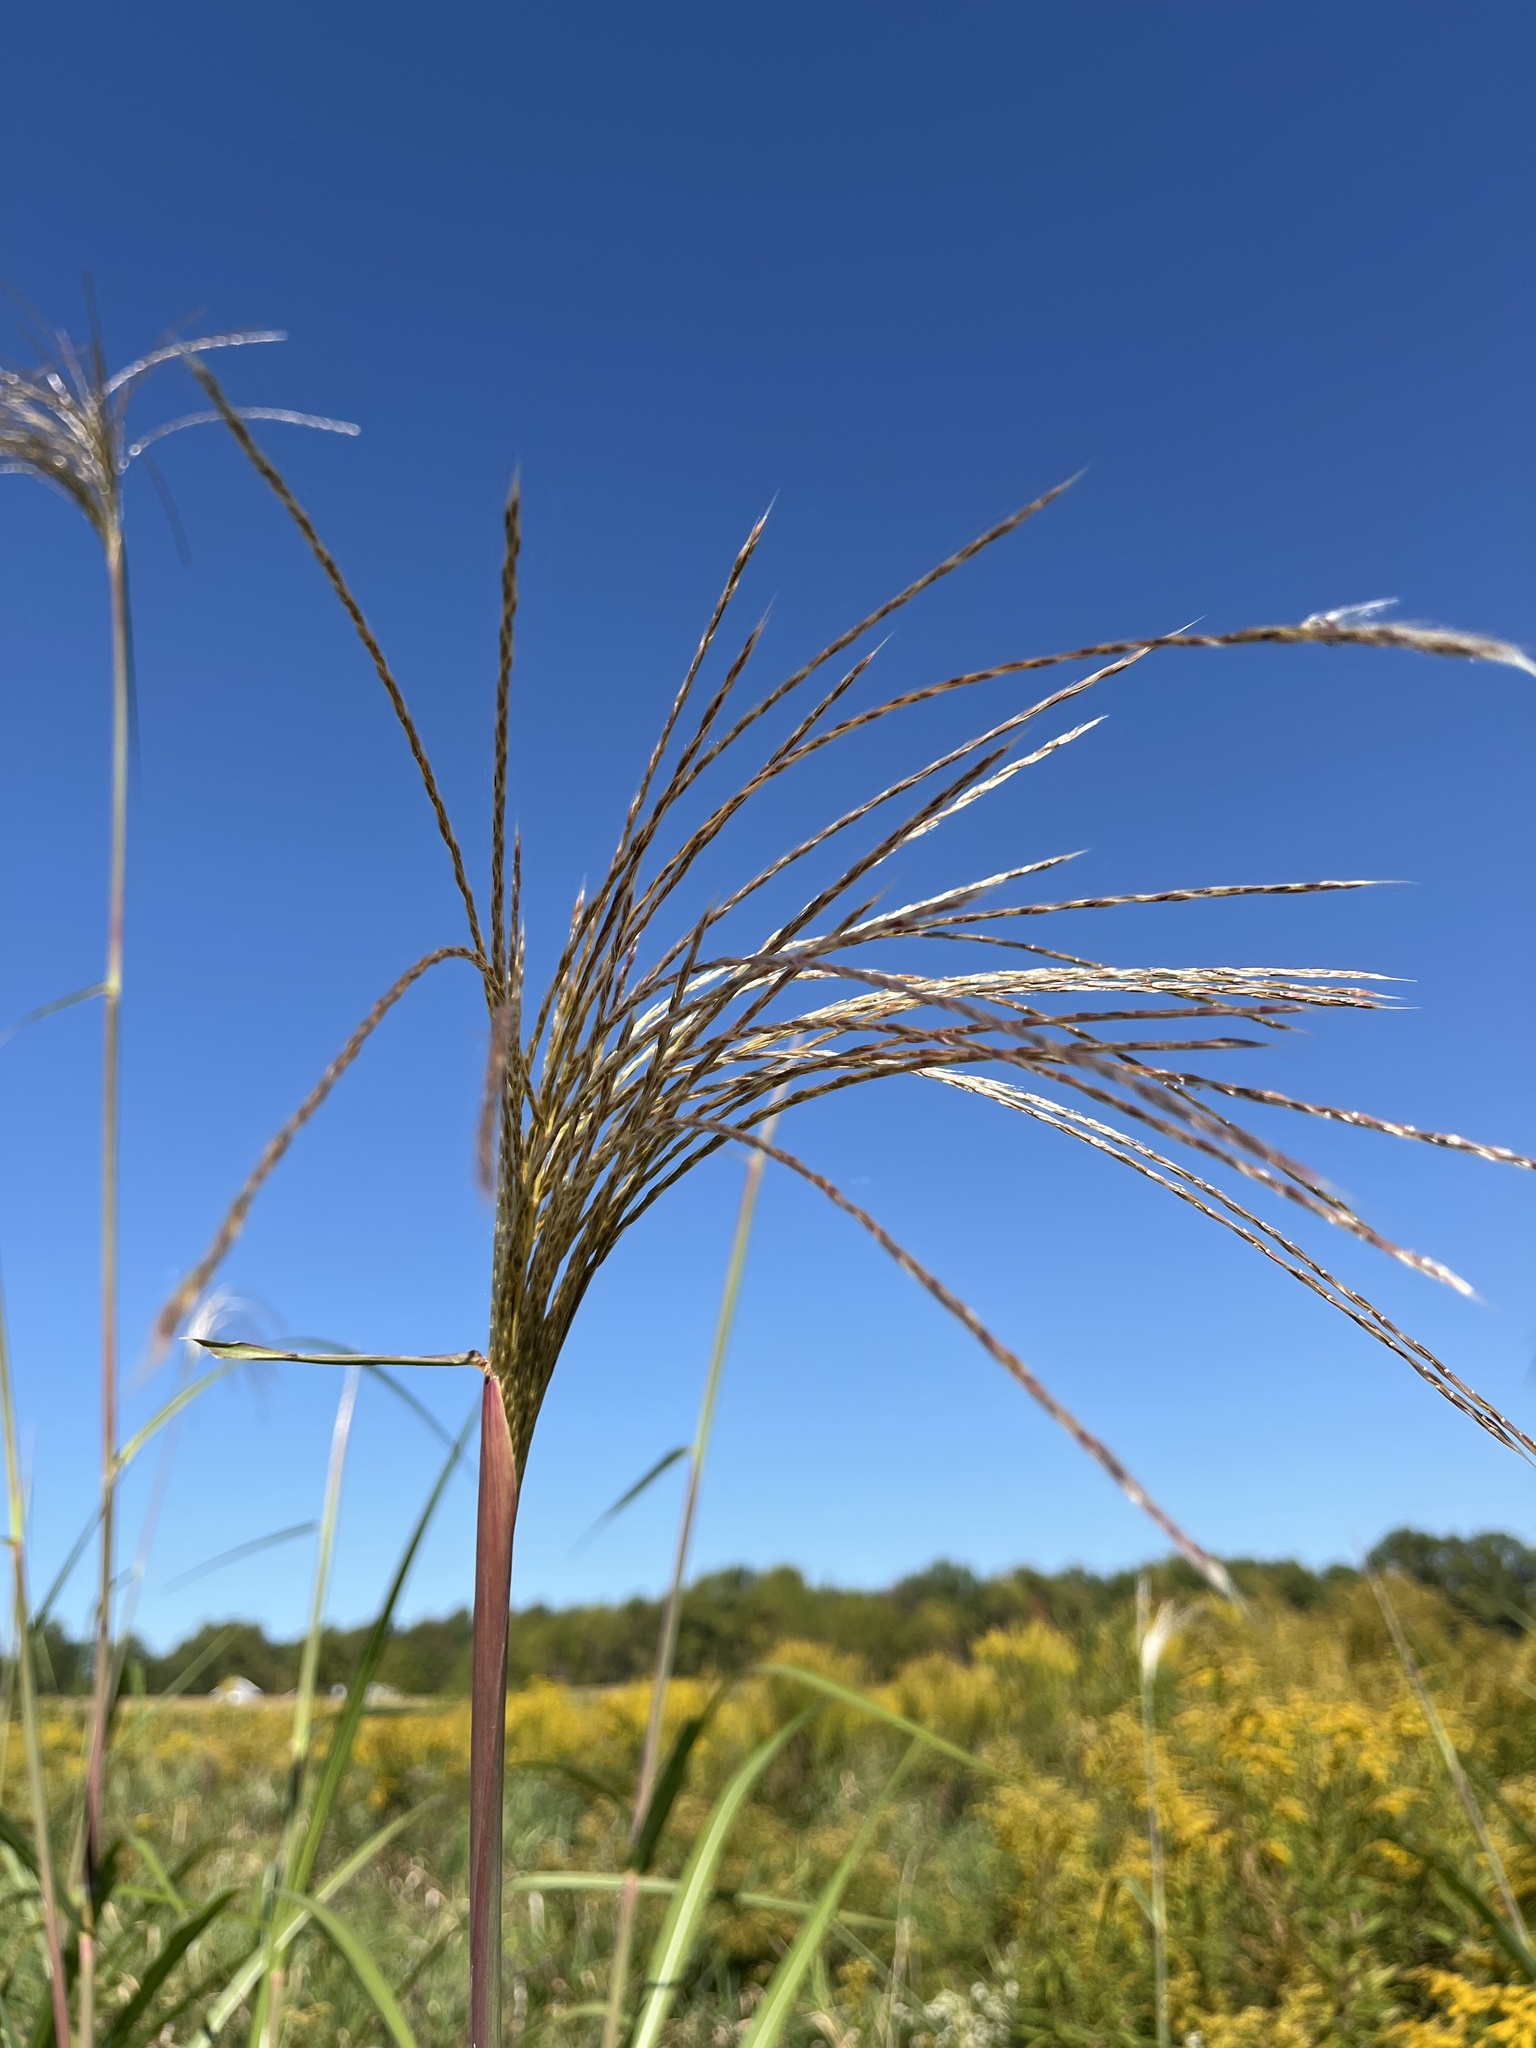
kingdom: Plantae
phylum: Tracheophyta
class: Liliopsida
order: Poales
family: Poaceae
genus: Miscanthus
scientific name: Miscanthus sinensis
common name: Chinese silvergrass
